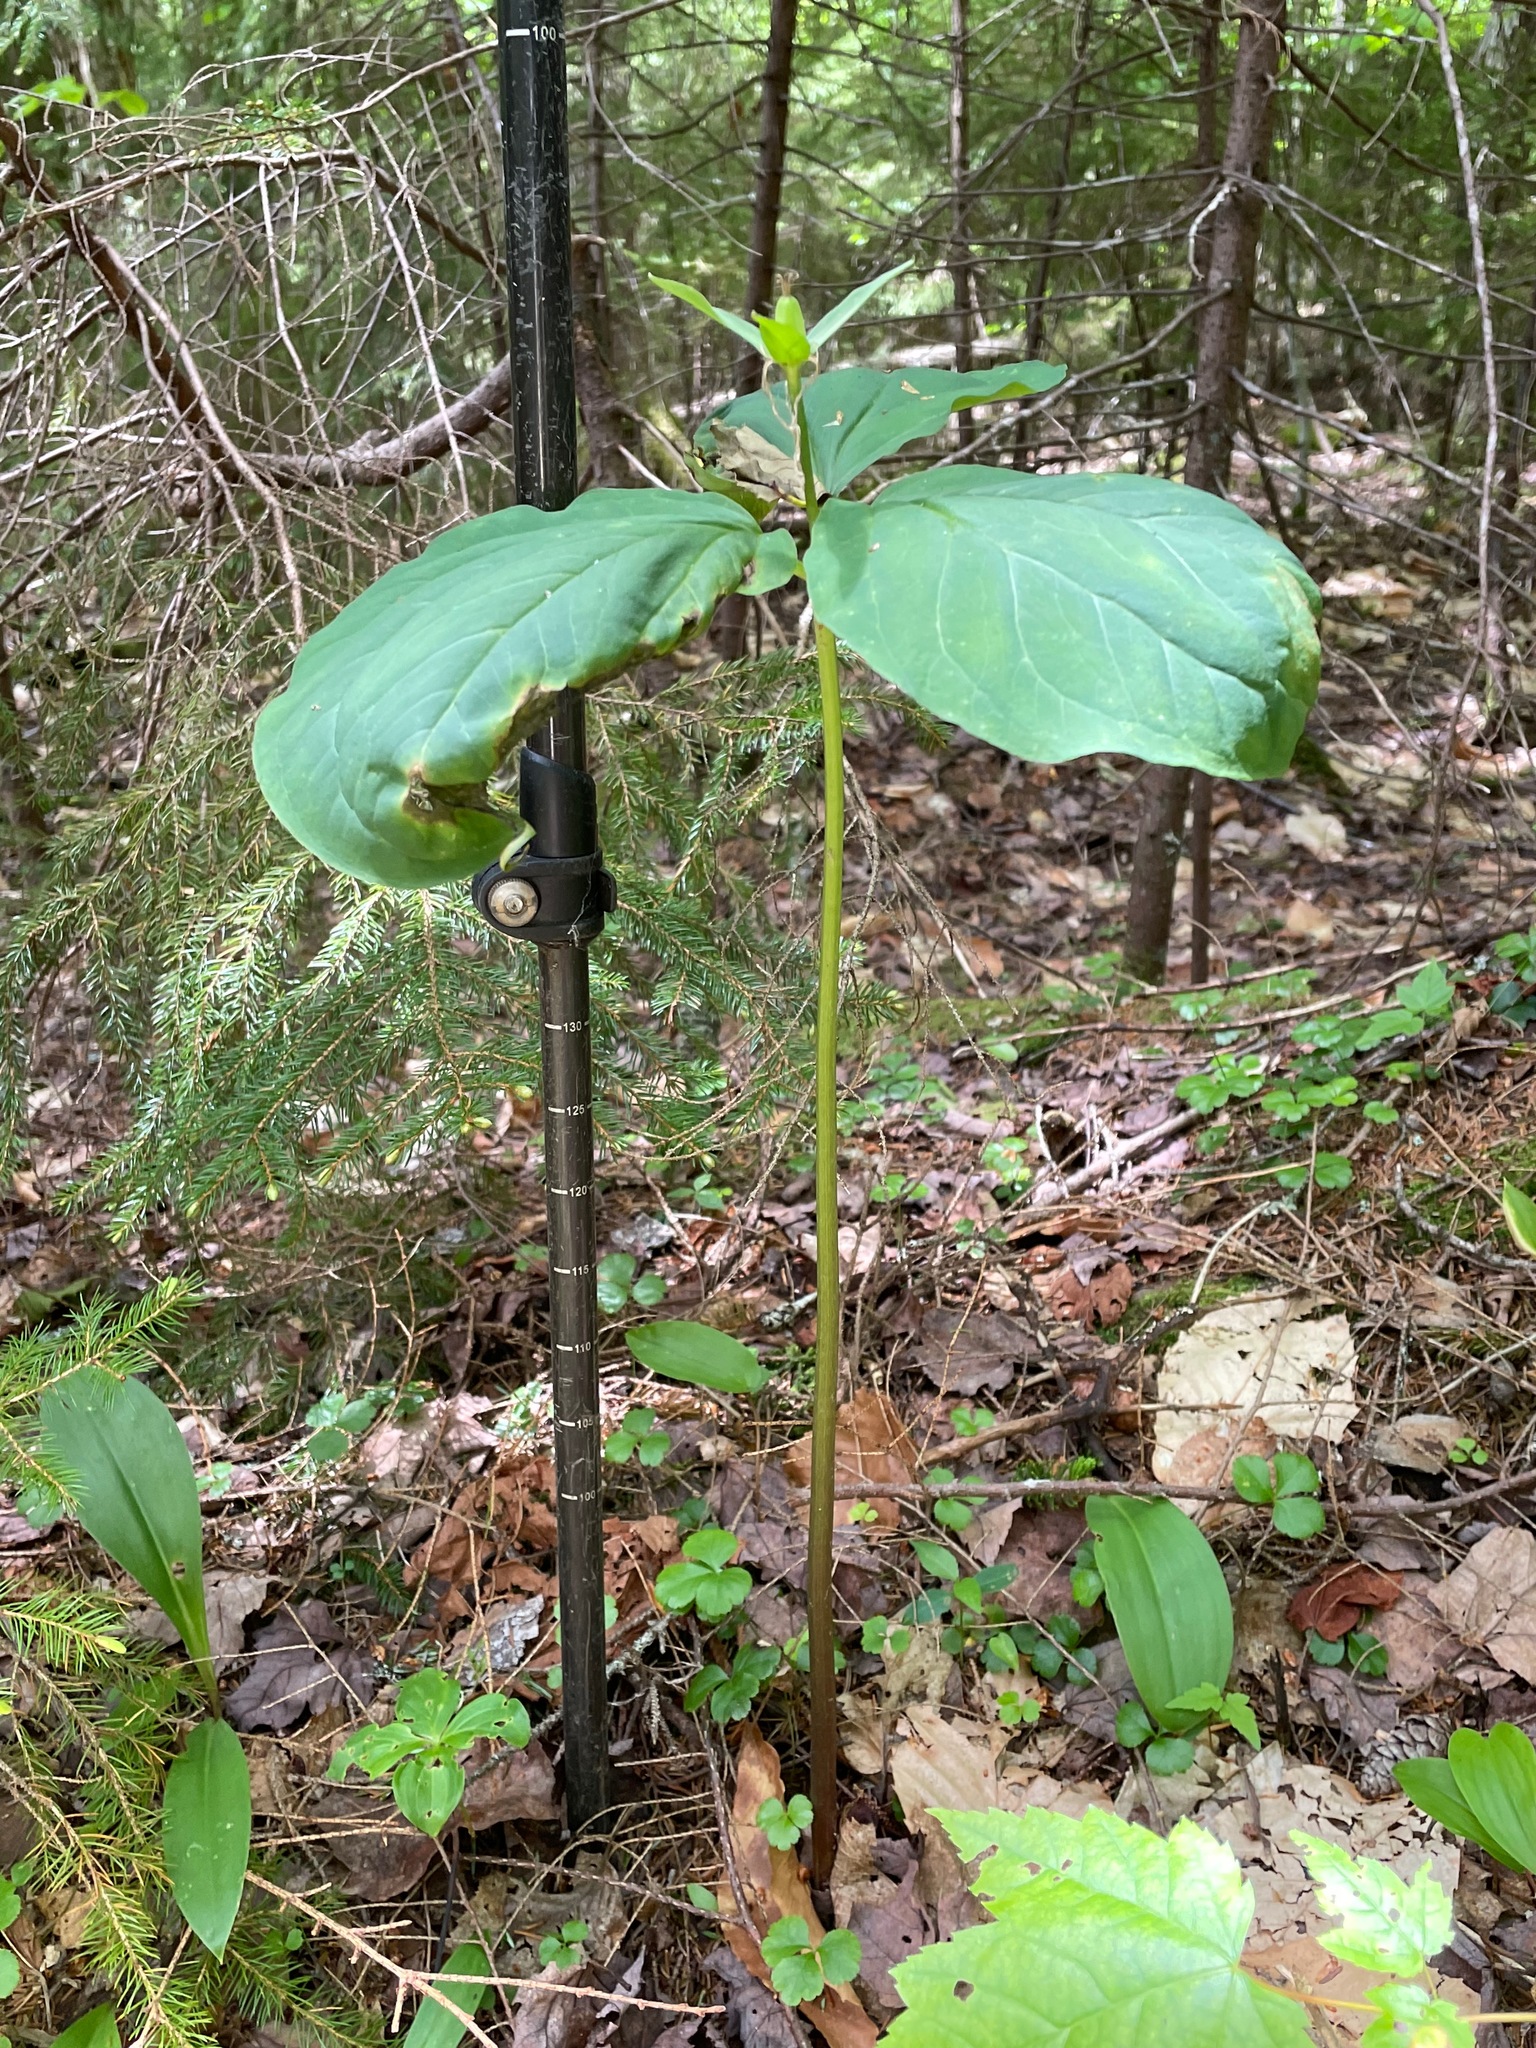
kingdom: Plantae
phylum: Tracheophyta
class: Liliopsida
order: Liliales
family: Melanthiaceae
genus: Trillium
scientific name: Trillium undulatum
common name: Paint trillium
